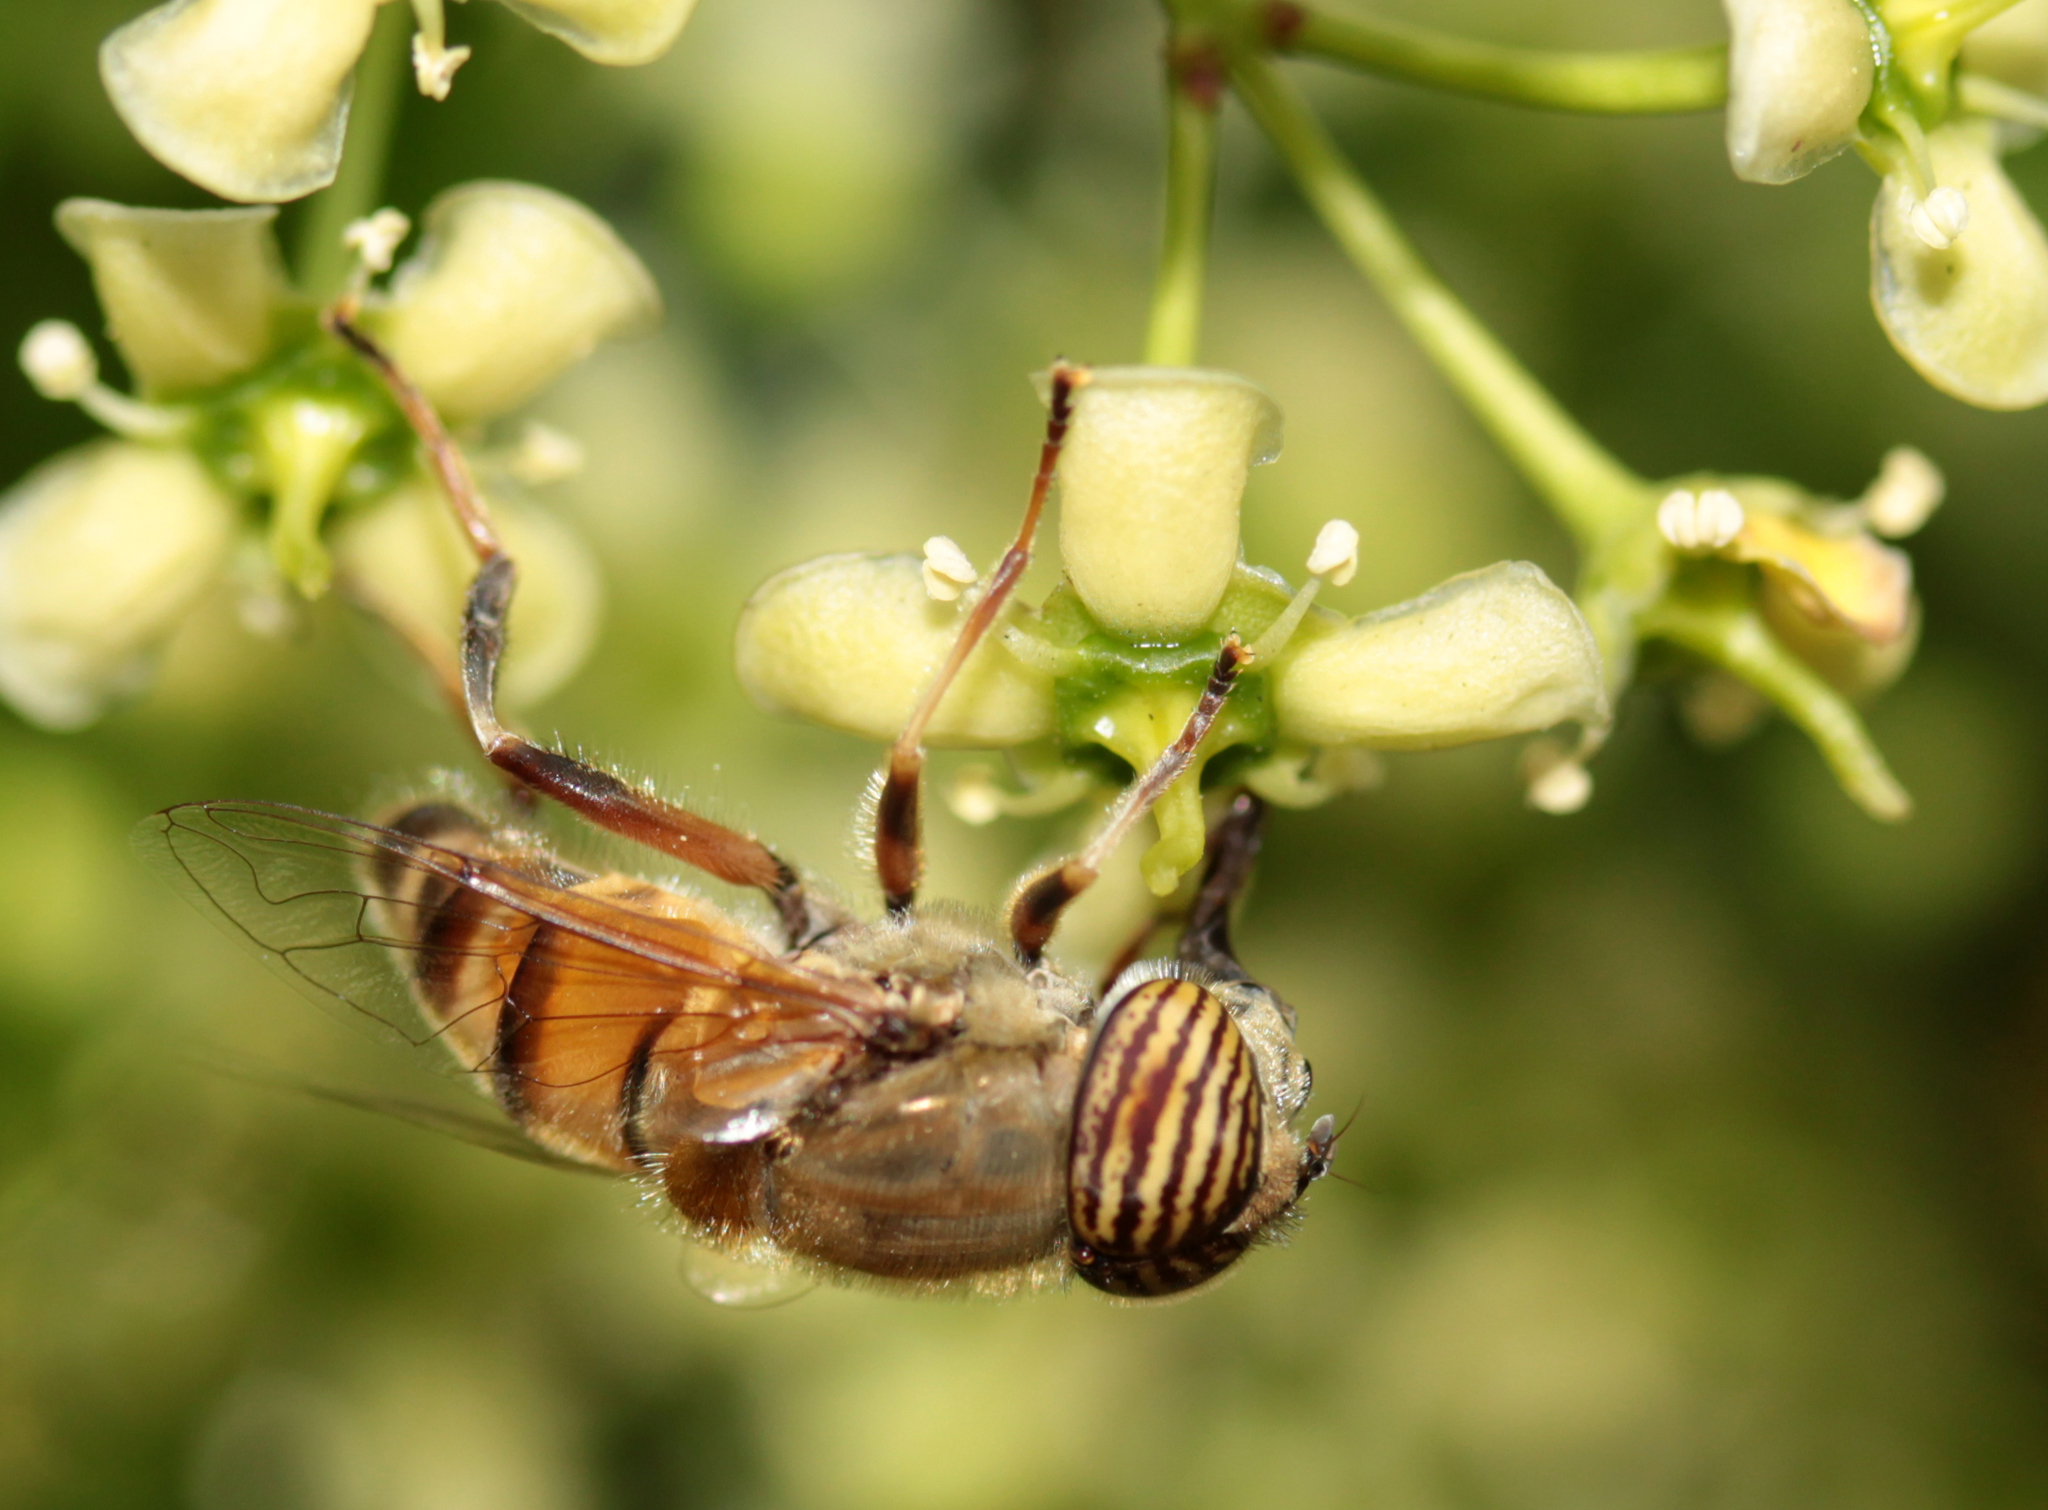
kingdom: Animalia
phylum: Arthropoda
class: Insecta
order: Diptera
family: Syrphidae
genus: Eristalinus
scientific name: Eristalinus taeniops
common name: Syrphid fly
